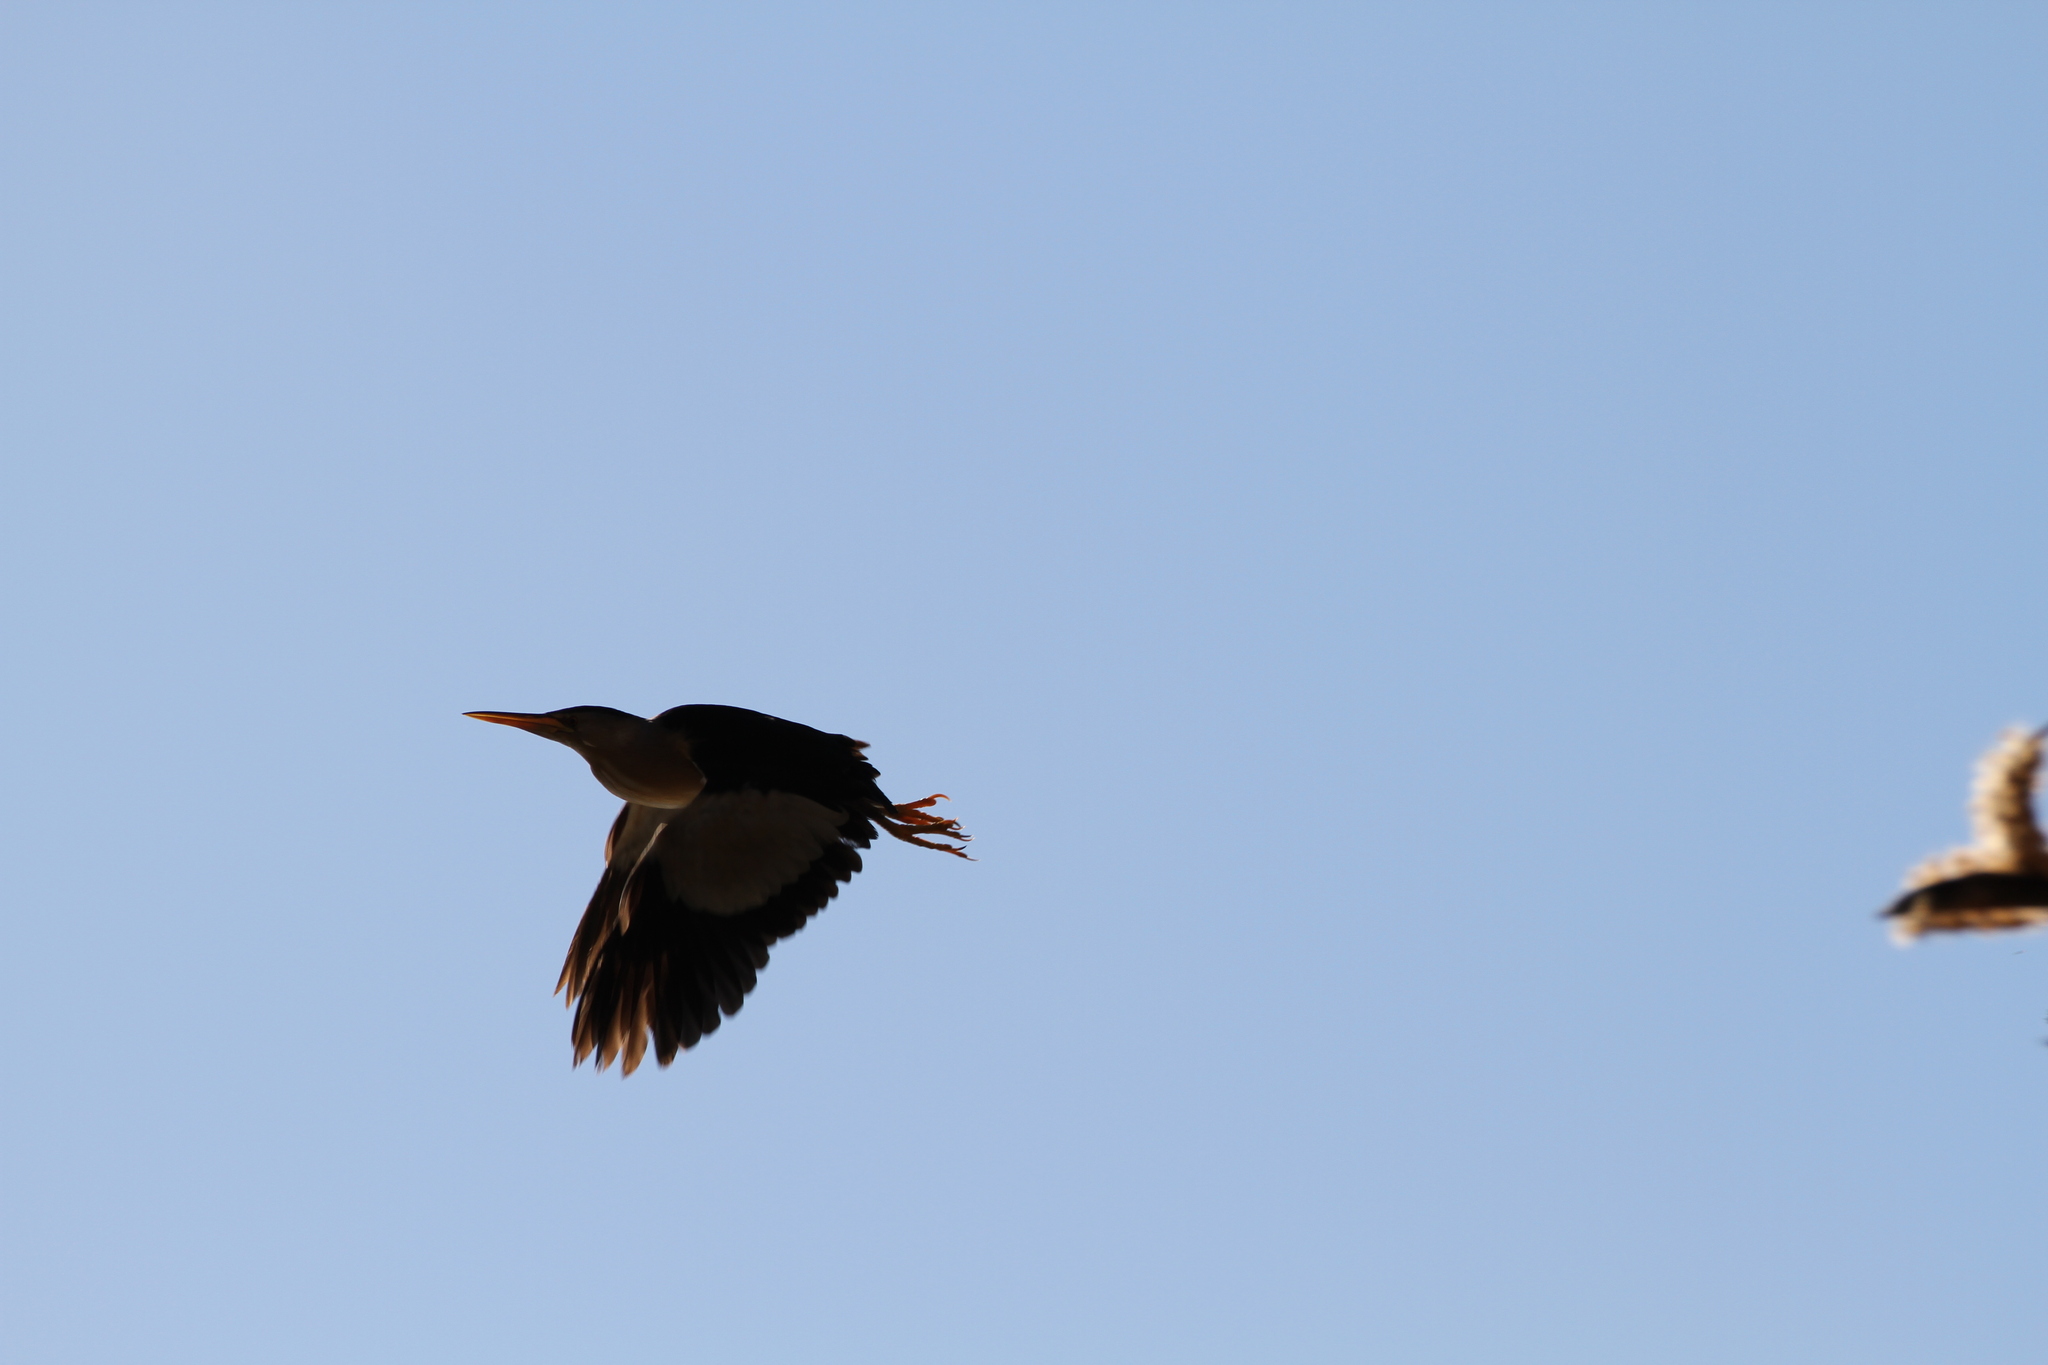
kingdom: Animalia
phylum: Chordata
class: Aves
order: Pelecaniformes
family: Ardeidae
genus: Ixobrychus
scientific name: Ixobrychus minutus
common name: Little bittern
